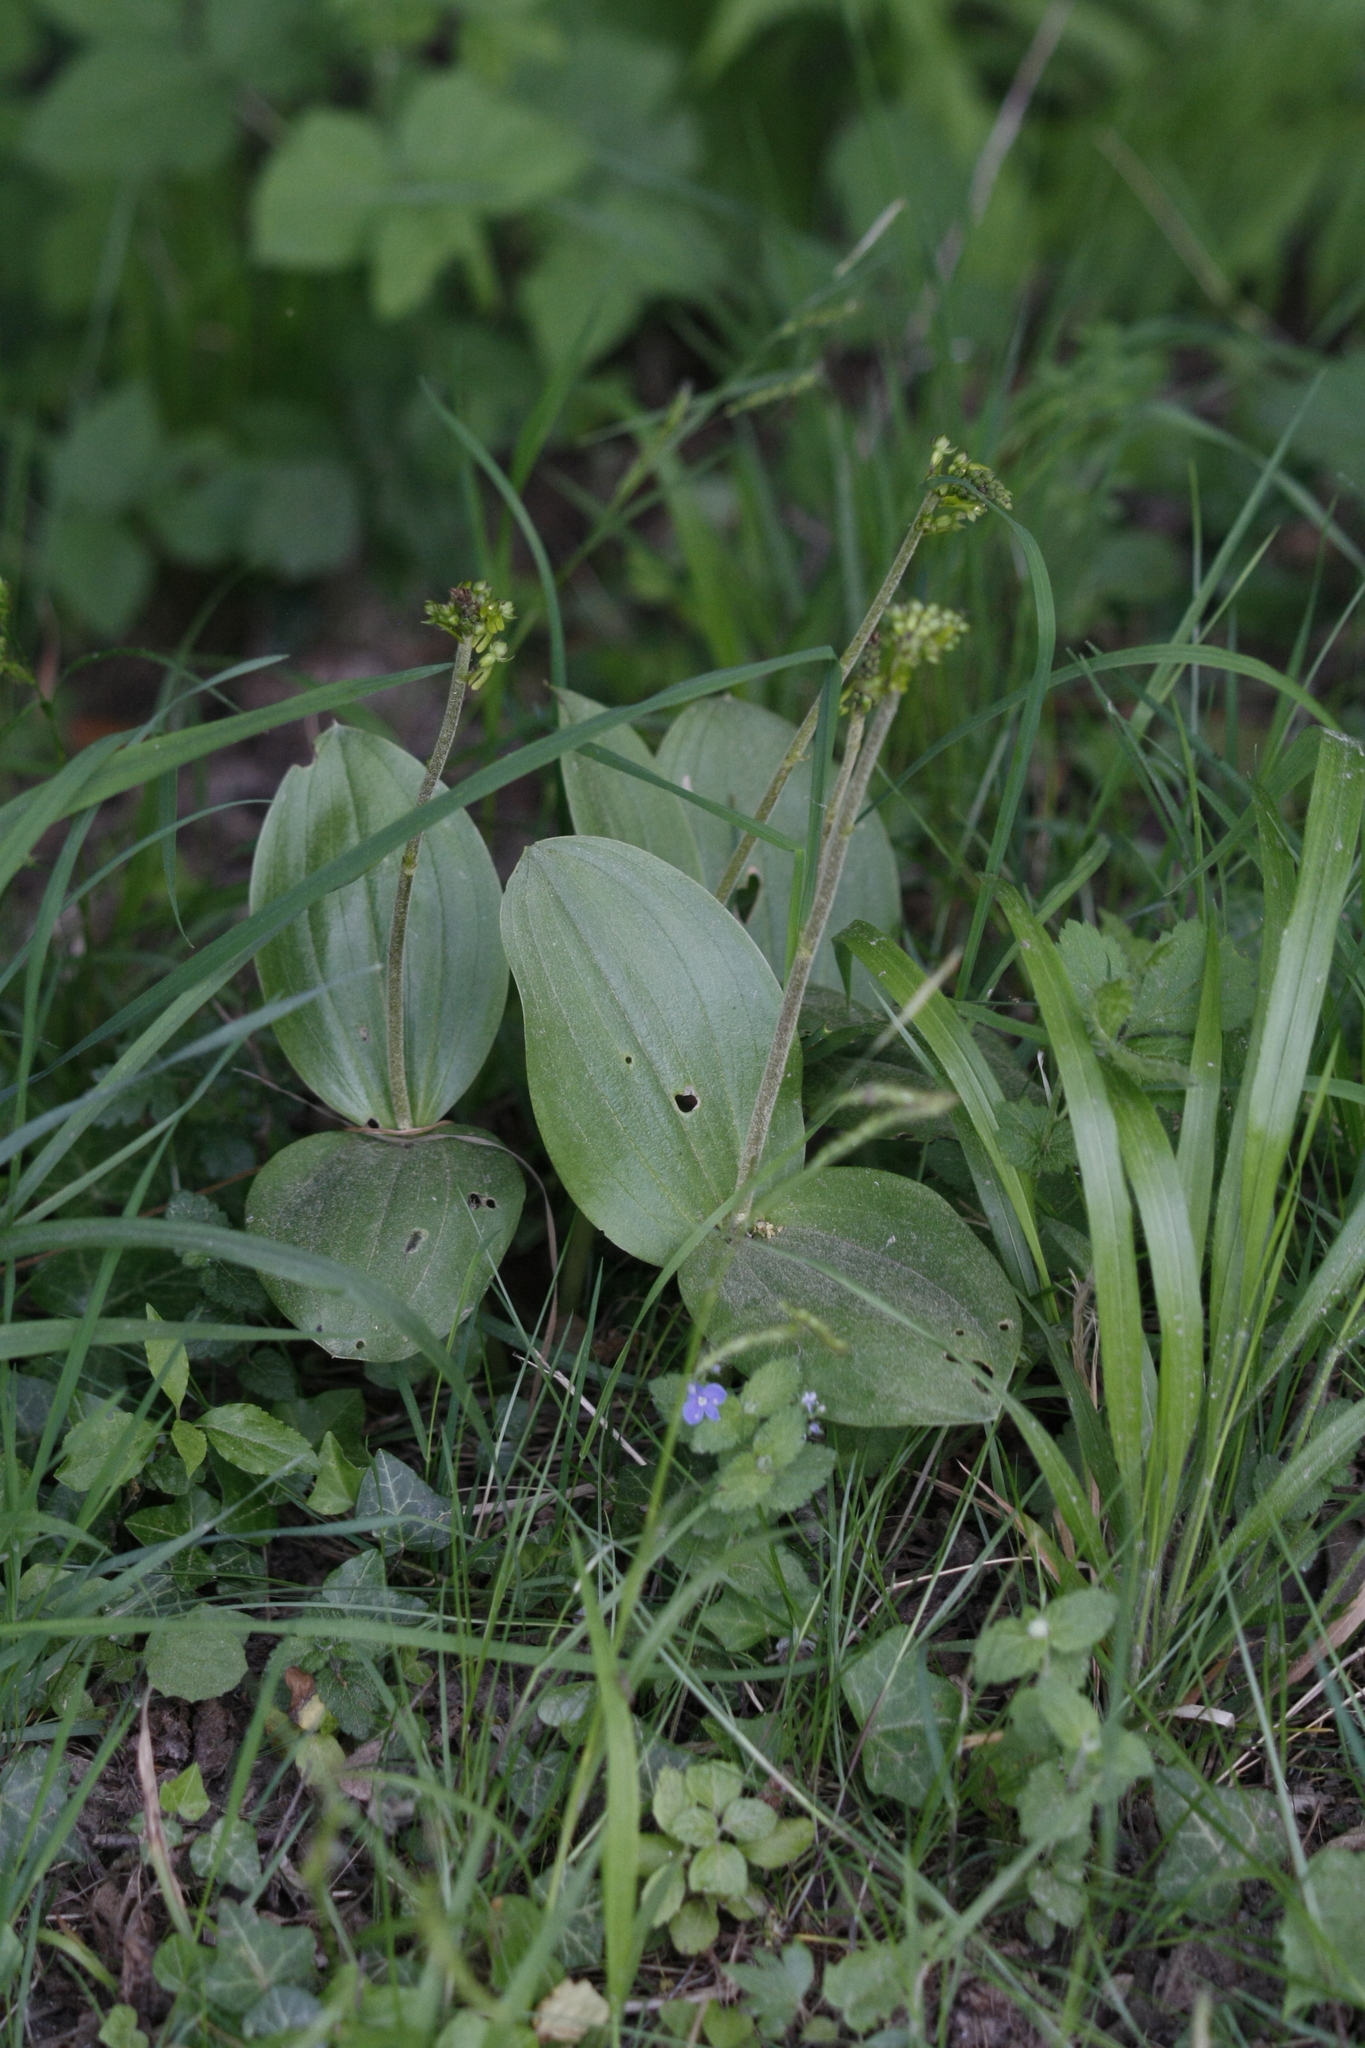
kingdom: Plantae
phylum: Tracheophyta
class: Liliopsida
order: Asparagales
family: Orchidaceae
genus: Neottia
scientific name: Neottia ovata
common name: Common twayblade
